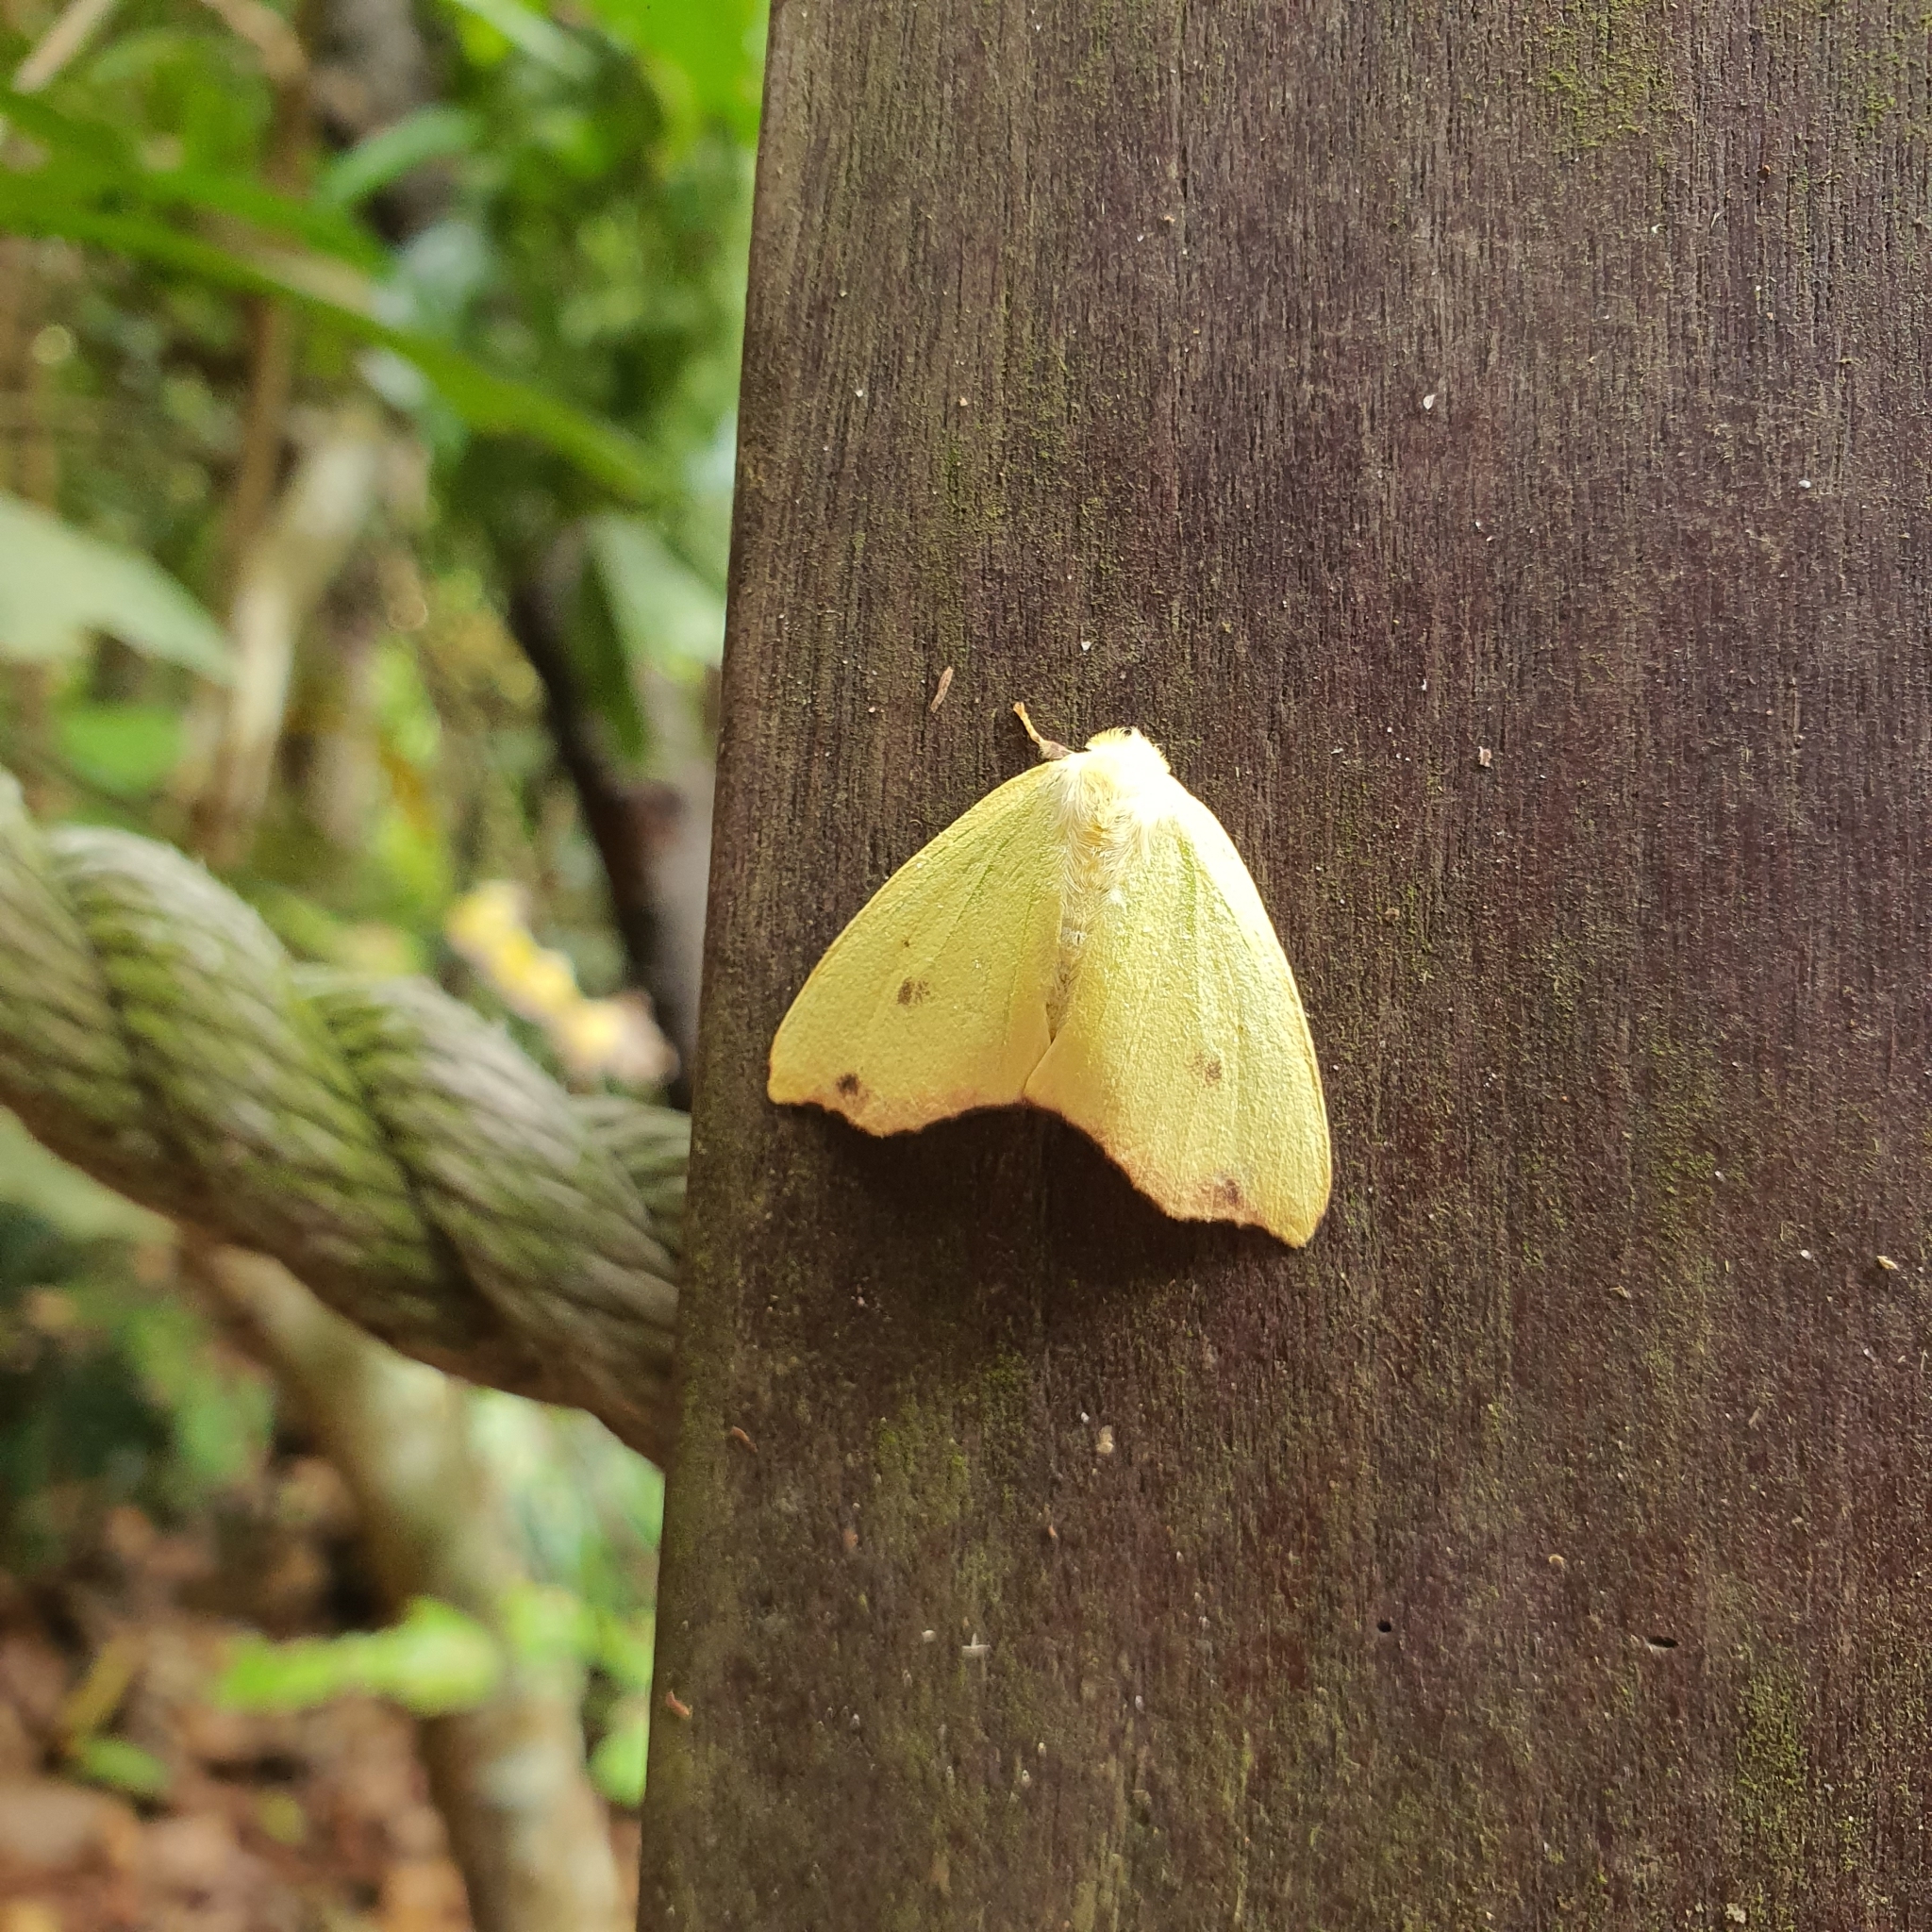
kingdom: Animalia
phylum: Arthropoda
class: Insecta
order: Lepidoptera
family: Erebidae
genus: Arctornis
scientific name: Arctornis rutila
